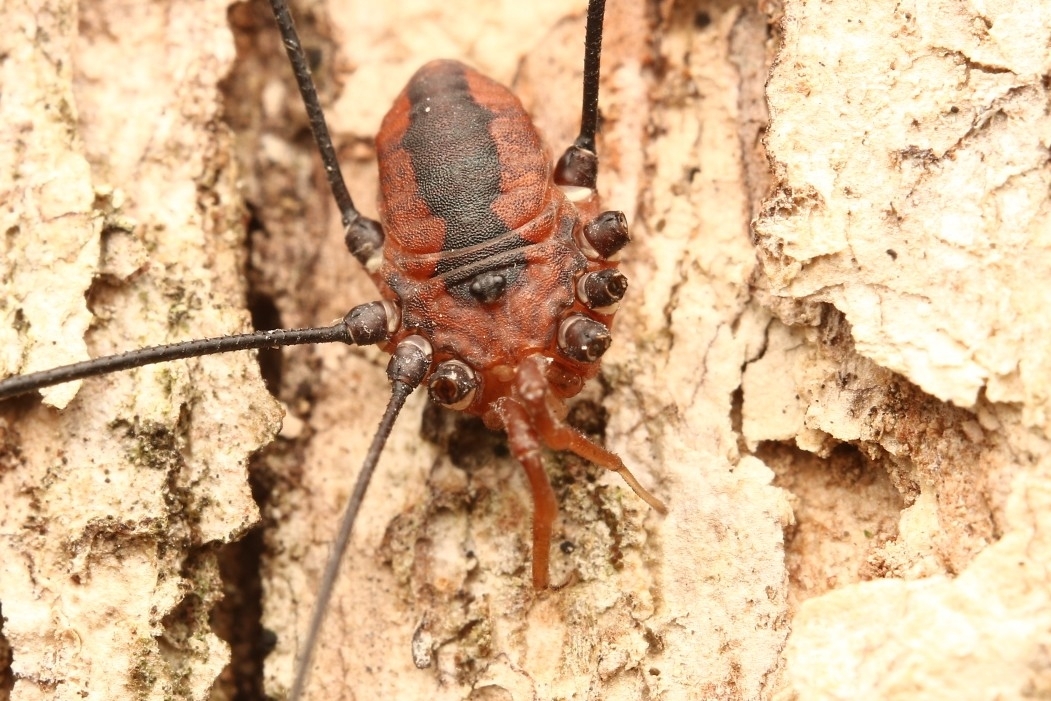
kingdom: Animalia
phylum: Arthropoda
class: Arachnida
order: Opiliones
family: Sclerosomatidae
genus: Leiobunum
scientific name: Leiobunum vittatum
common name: Eastern harvestman
